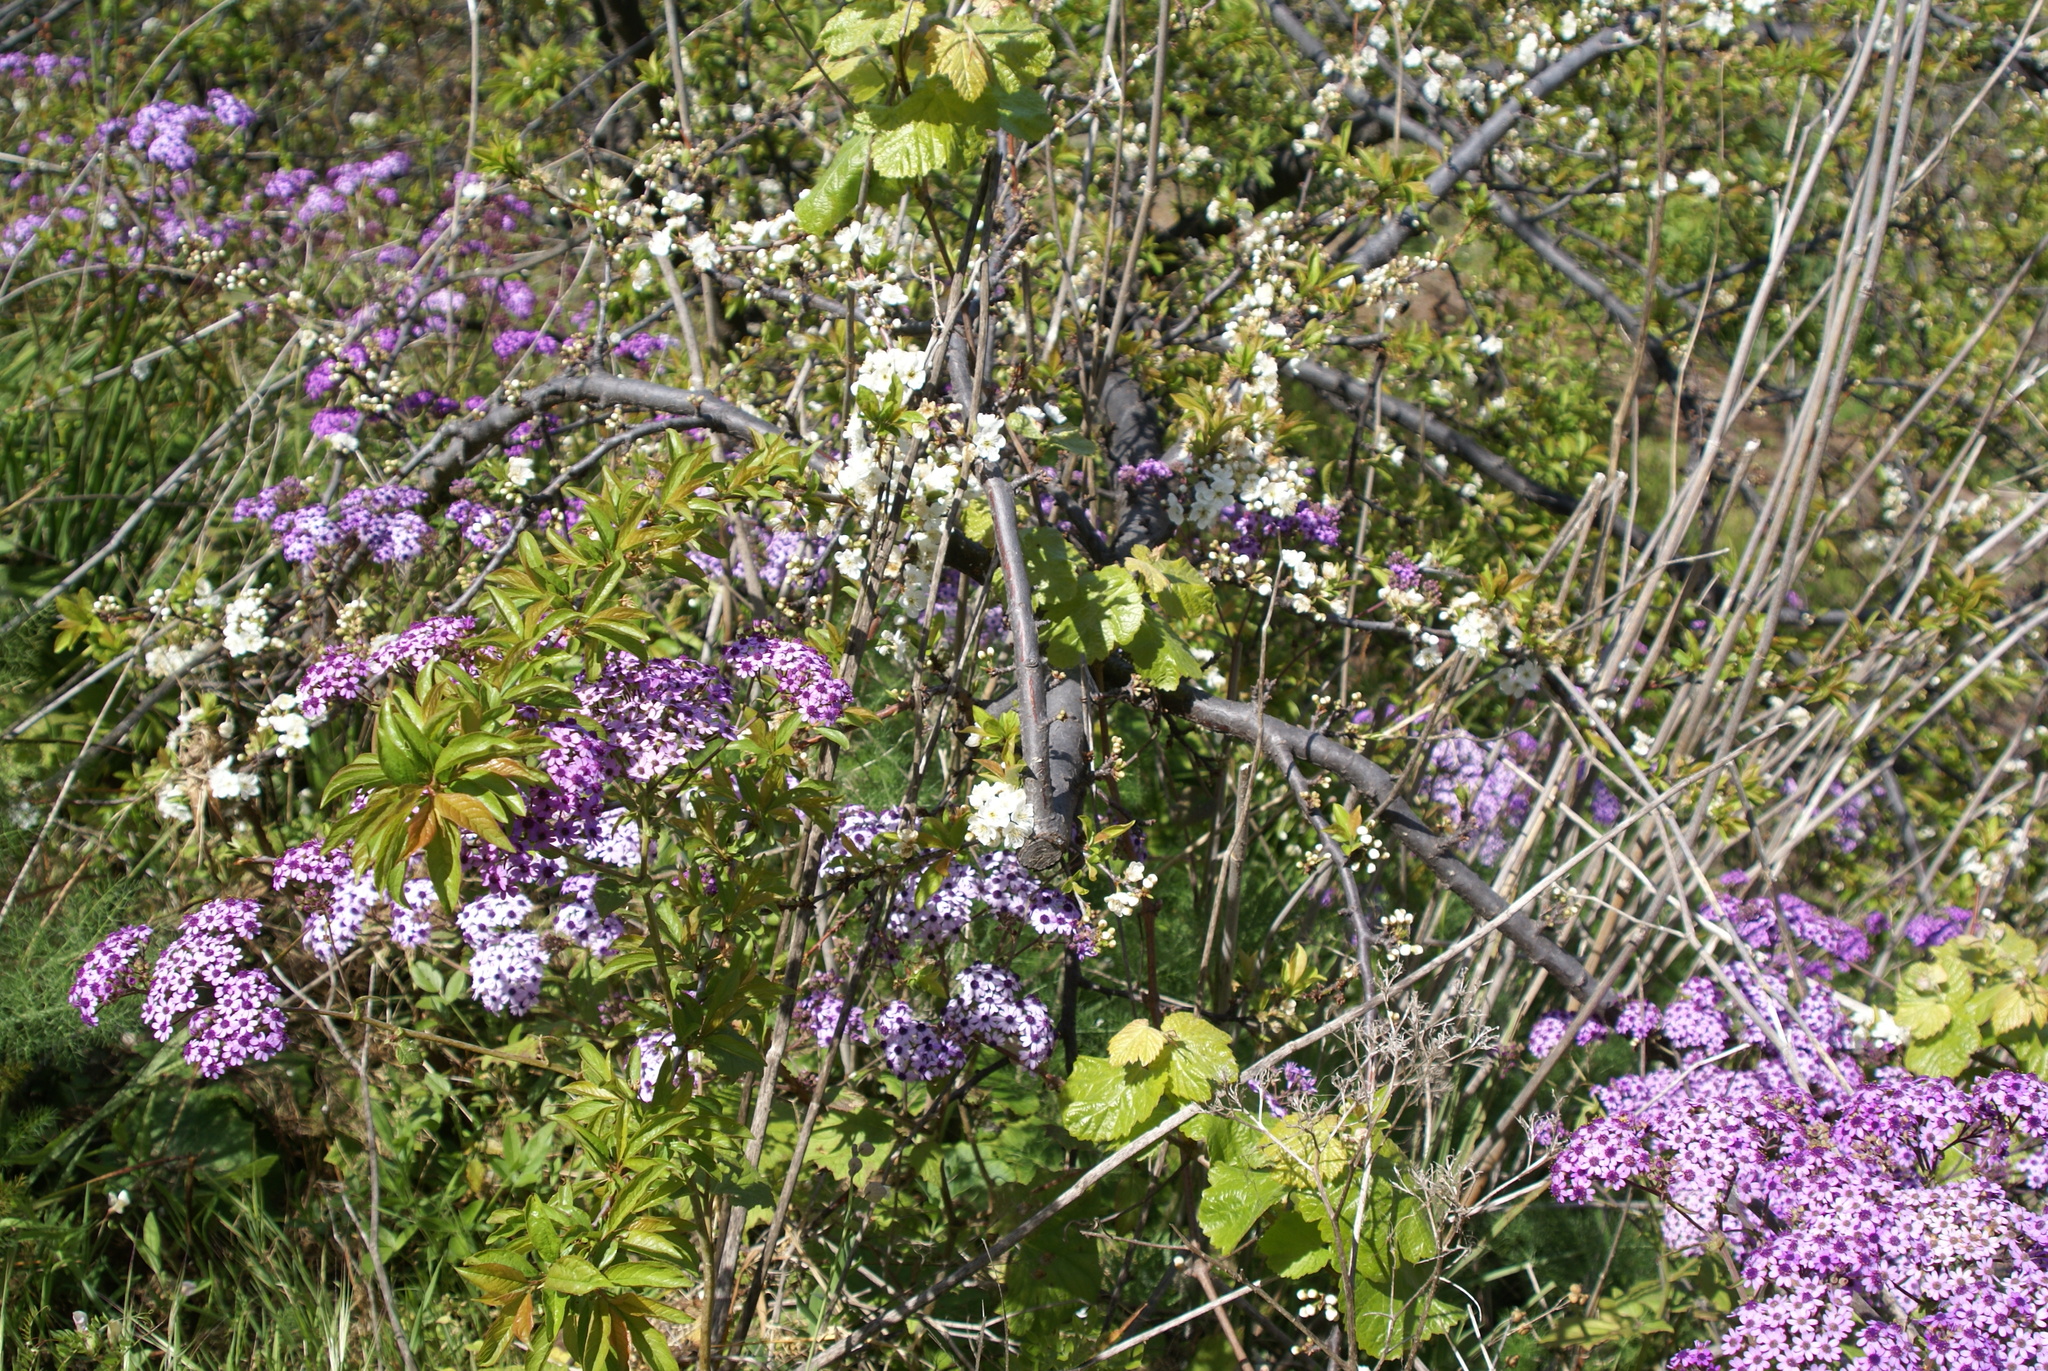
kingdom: Plantae
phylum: Tracheophyta
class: Magnoliopsida
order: Asterales
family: Asteraceae
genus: Pericallis
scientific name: Pericallis papyracea
